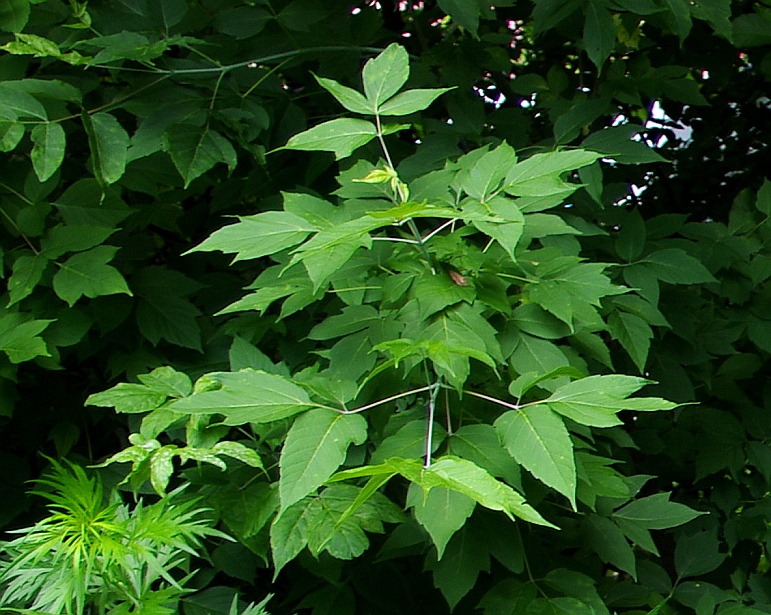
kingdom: Plantae
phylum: Tracheophyta
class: Magnoliopsida
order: Sapindales
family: Sapindaceae
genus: Acer
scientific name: Acer negundo
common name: Ashleaf maple
